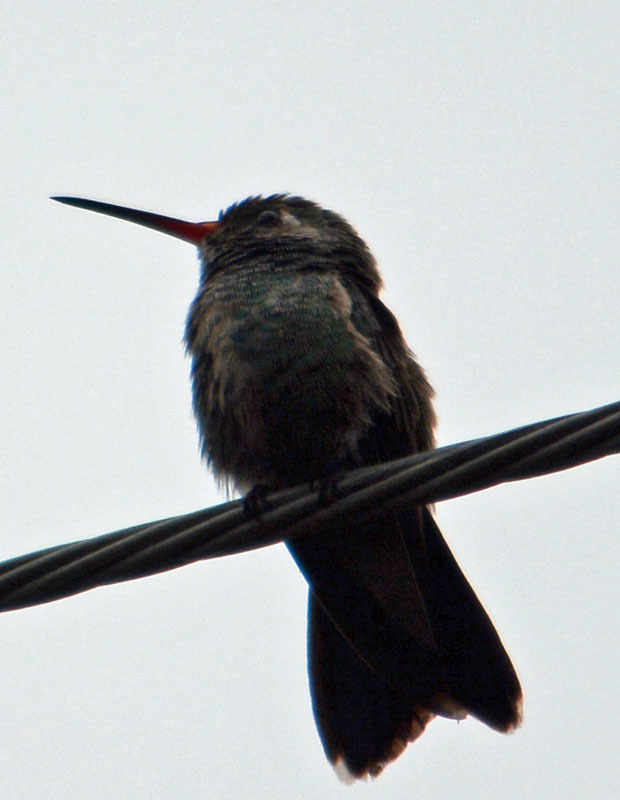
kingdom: Animalia
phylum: Chordata
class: Aves
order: Apodiformes
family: Trochilidae
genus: Cynanthus
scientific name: Cynanthus latirostris
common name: Broad-billed hummingbird
